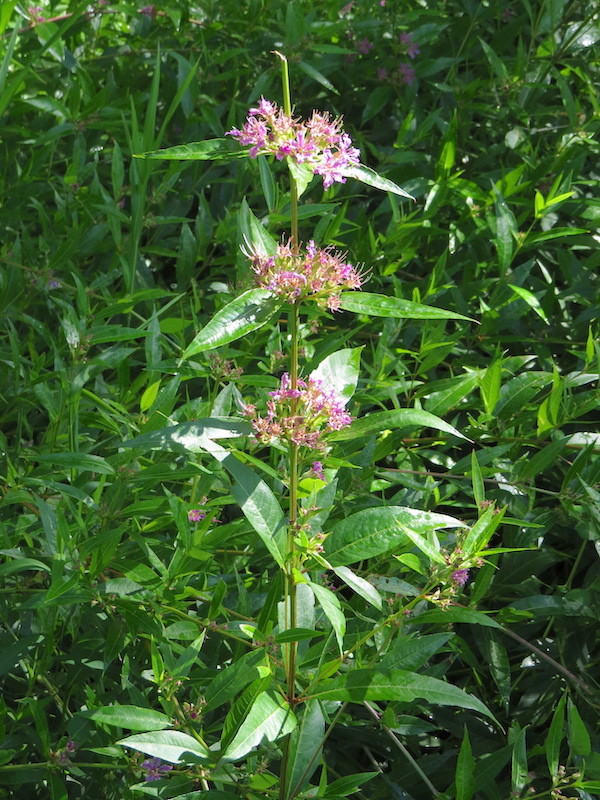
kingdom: Plantae
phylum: Tracheophyta
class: Magnoliopsida
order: Myrtales
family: Lythraceae
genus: Decodon
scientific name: Decodon verticillatus
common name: Hairy swamp loosestrife
